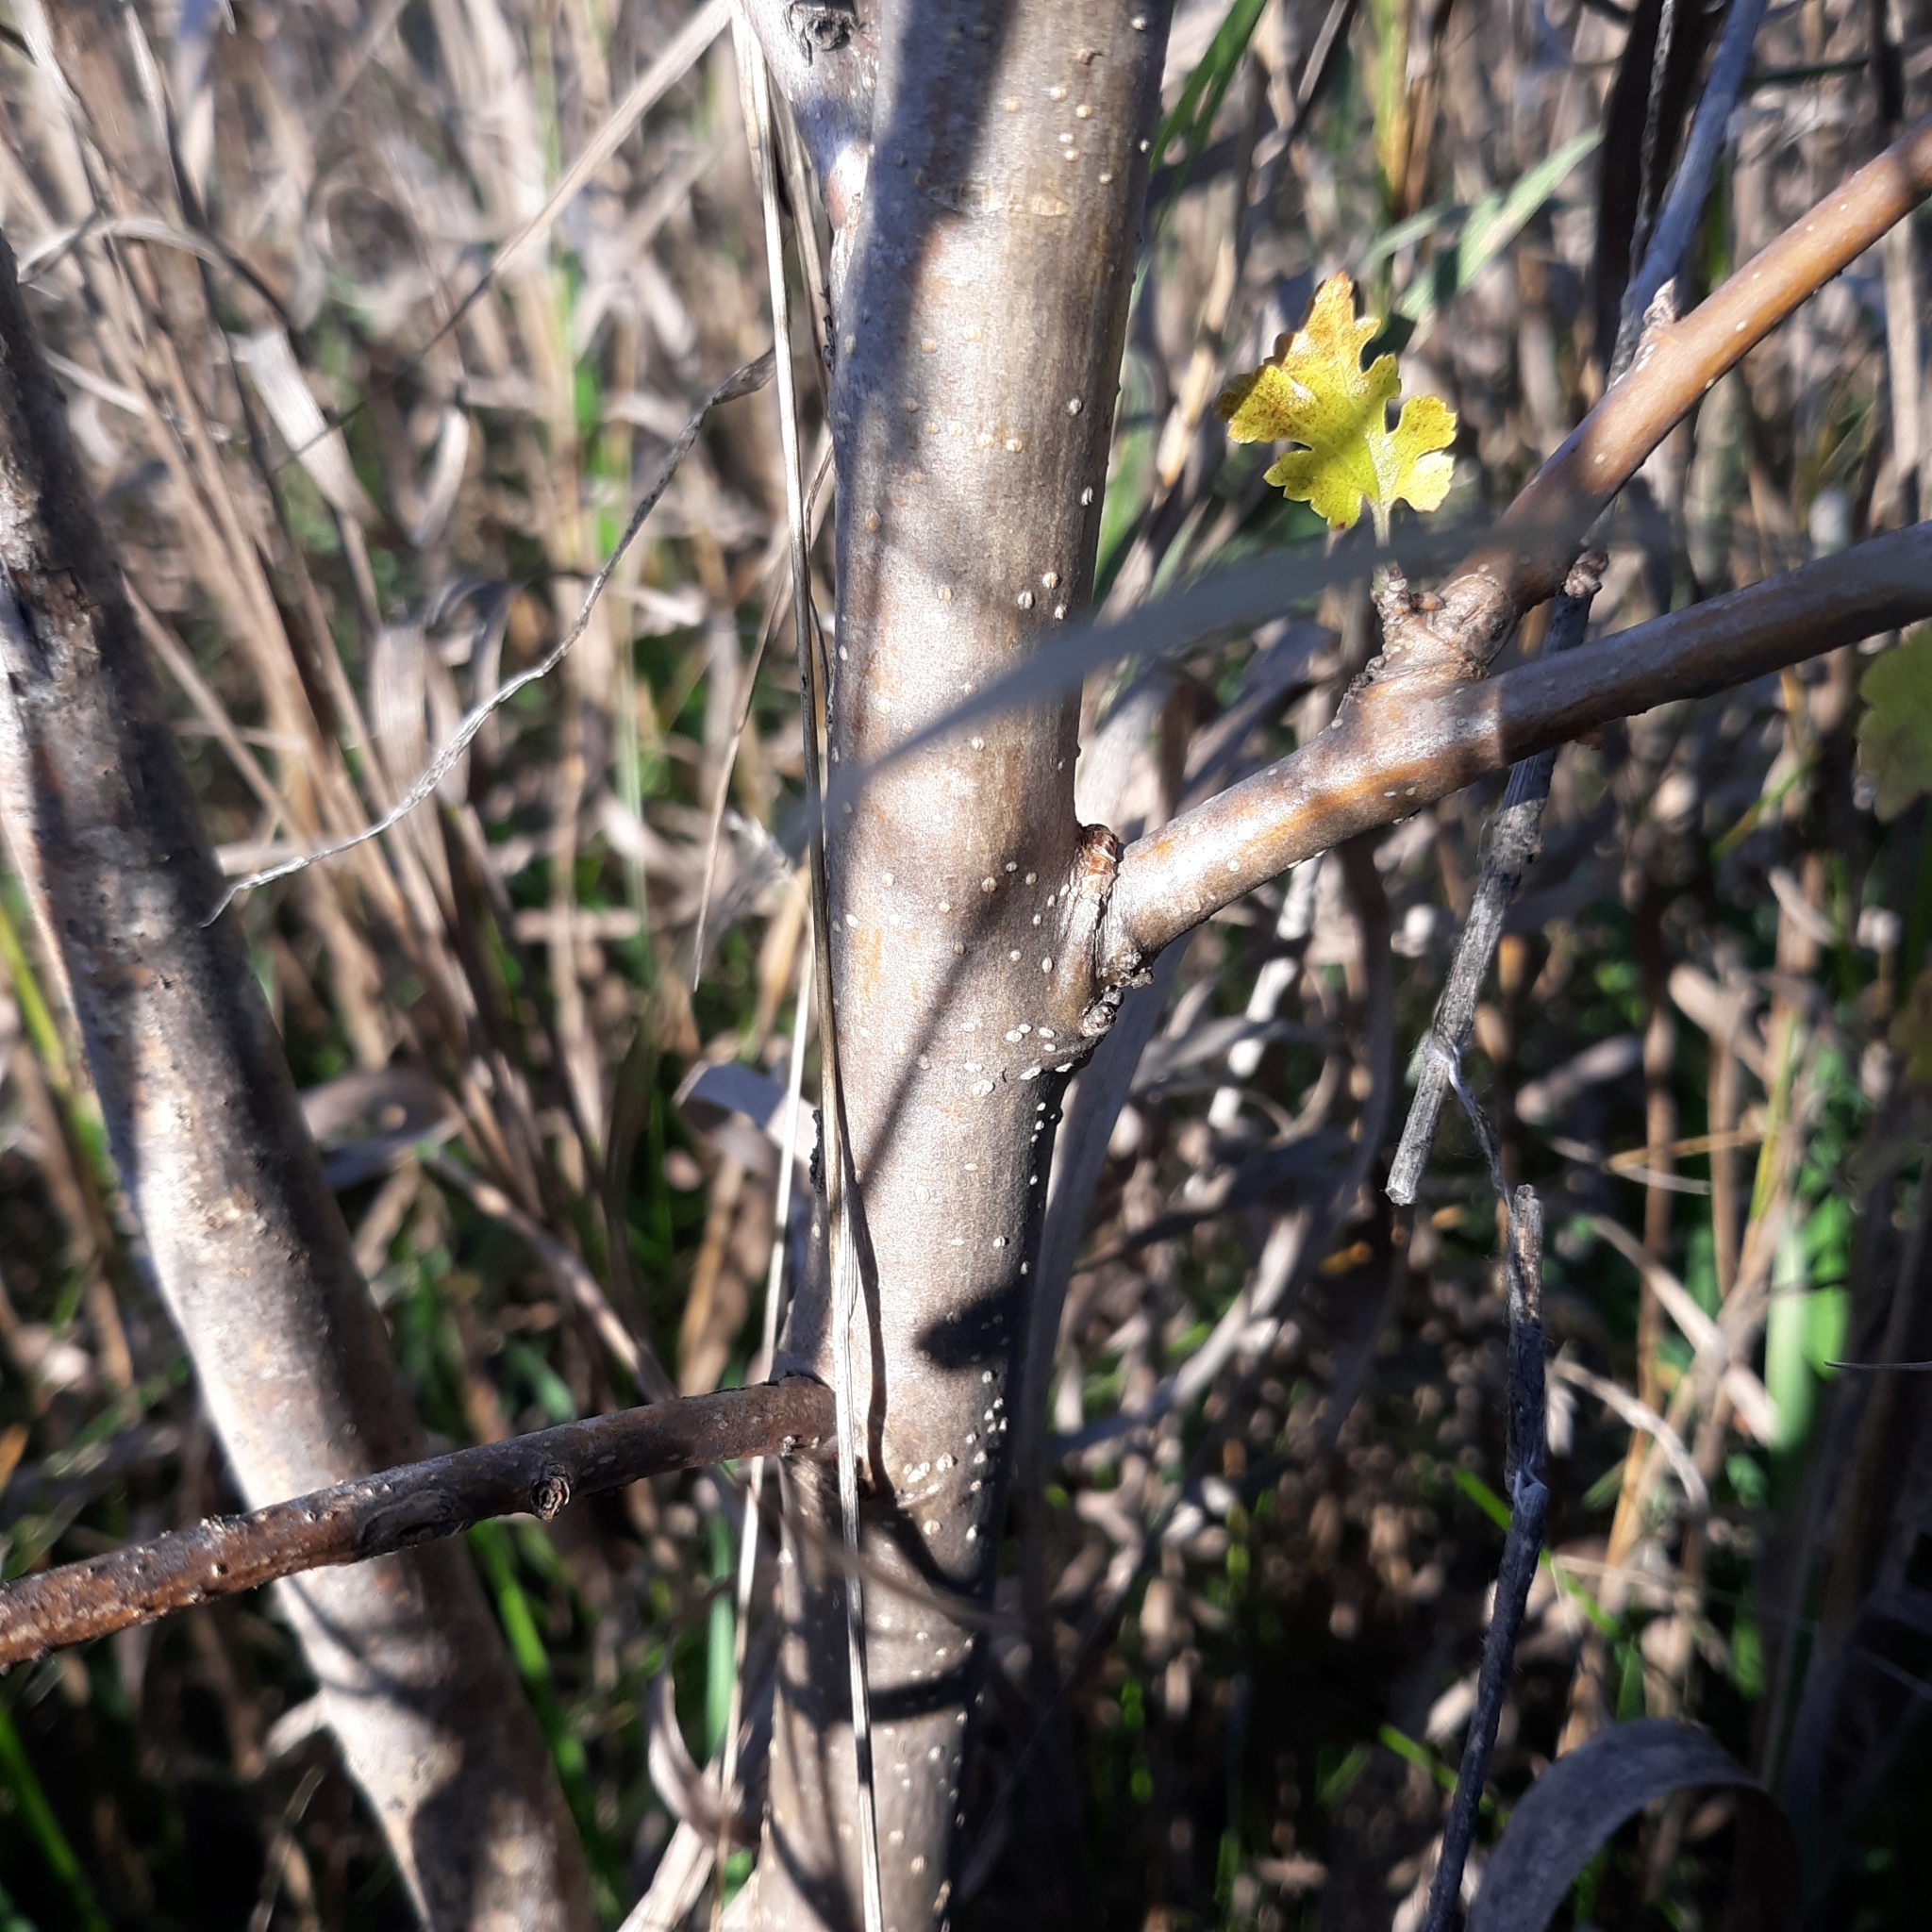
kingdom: Plantae
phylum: Tracheophyta
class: Magnoliopsida
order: Rosales
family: Moraceae
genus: Morus
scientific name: Morus alba
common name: White mulberry
